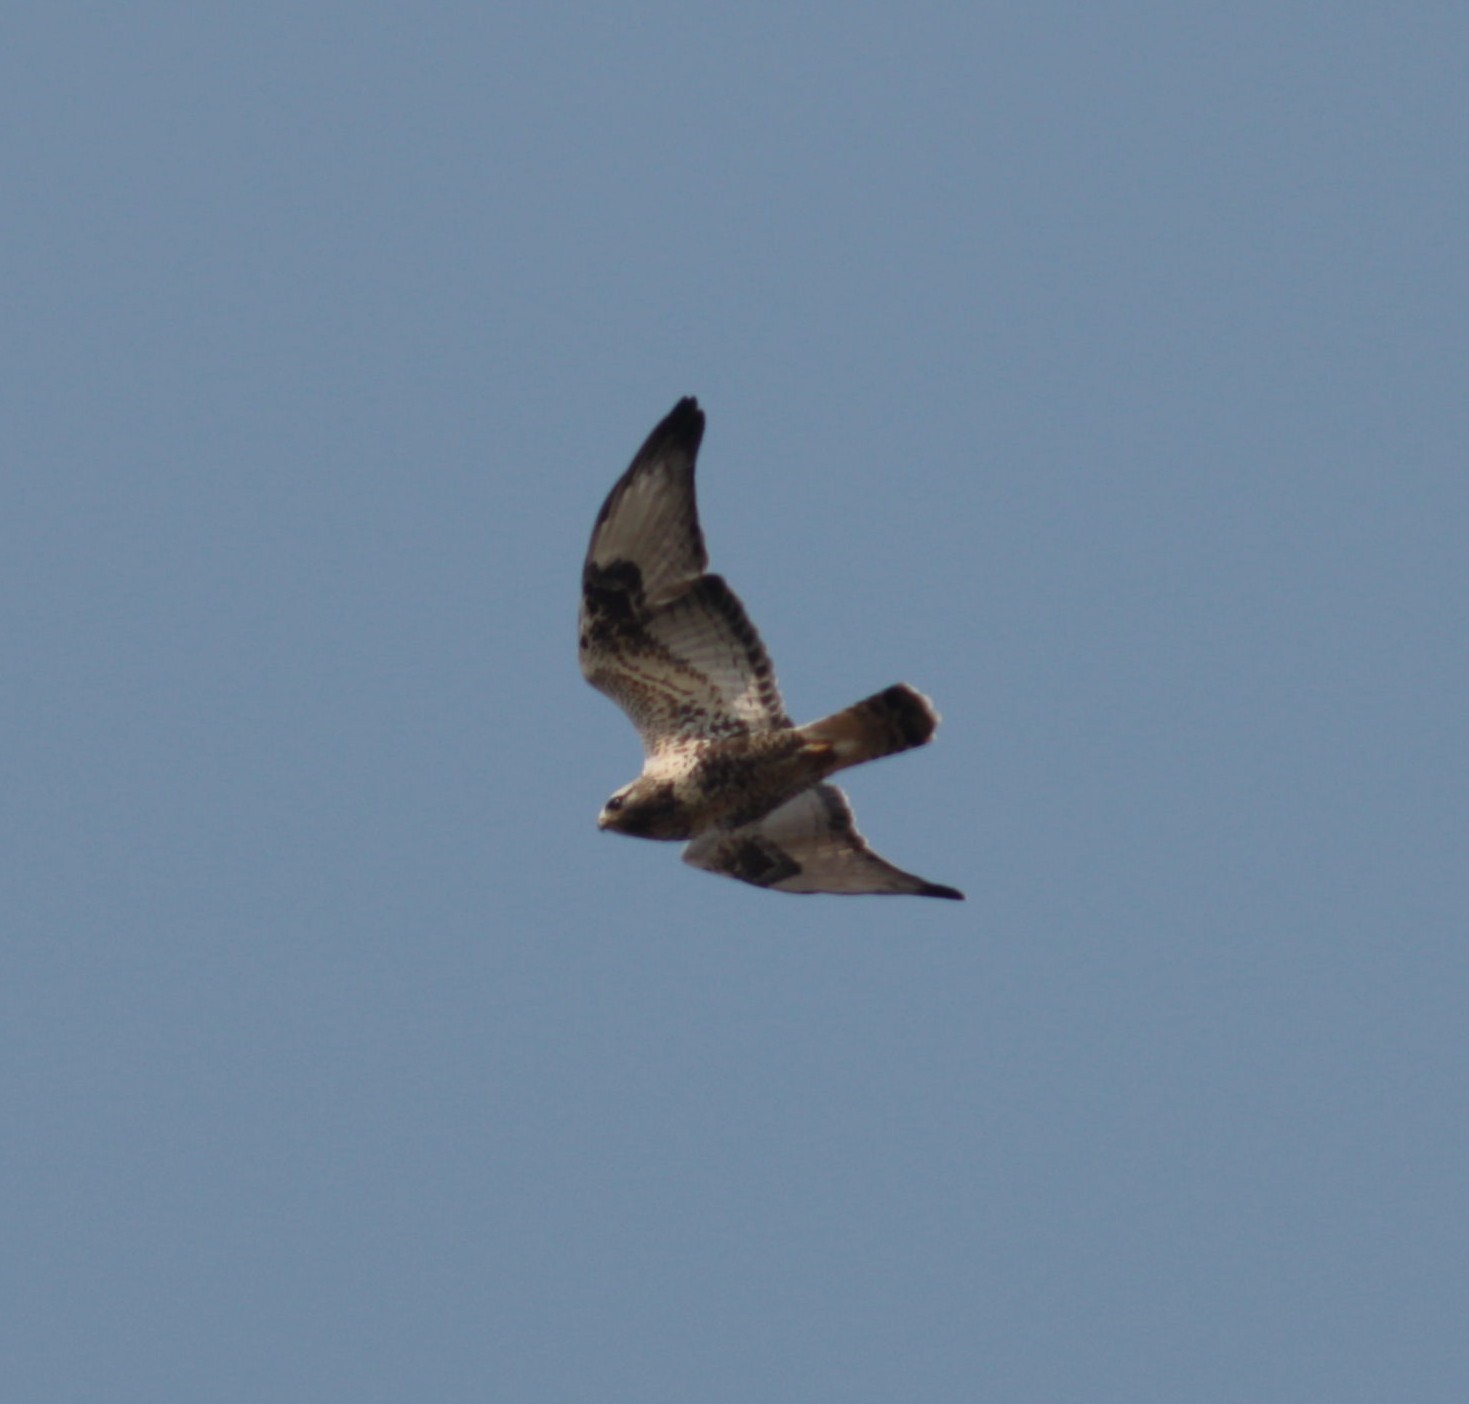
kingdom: Animalia
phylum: Chordata
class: Aves
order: Accipitriformes
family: Accipitridae
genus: Buteo
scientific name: Buteo lagopus
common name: Rough-legged buzzard
